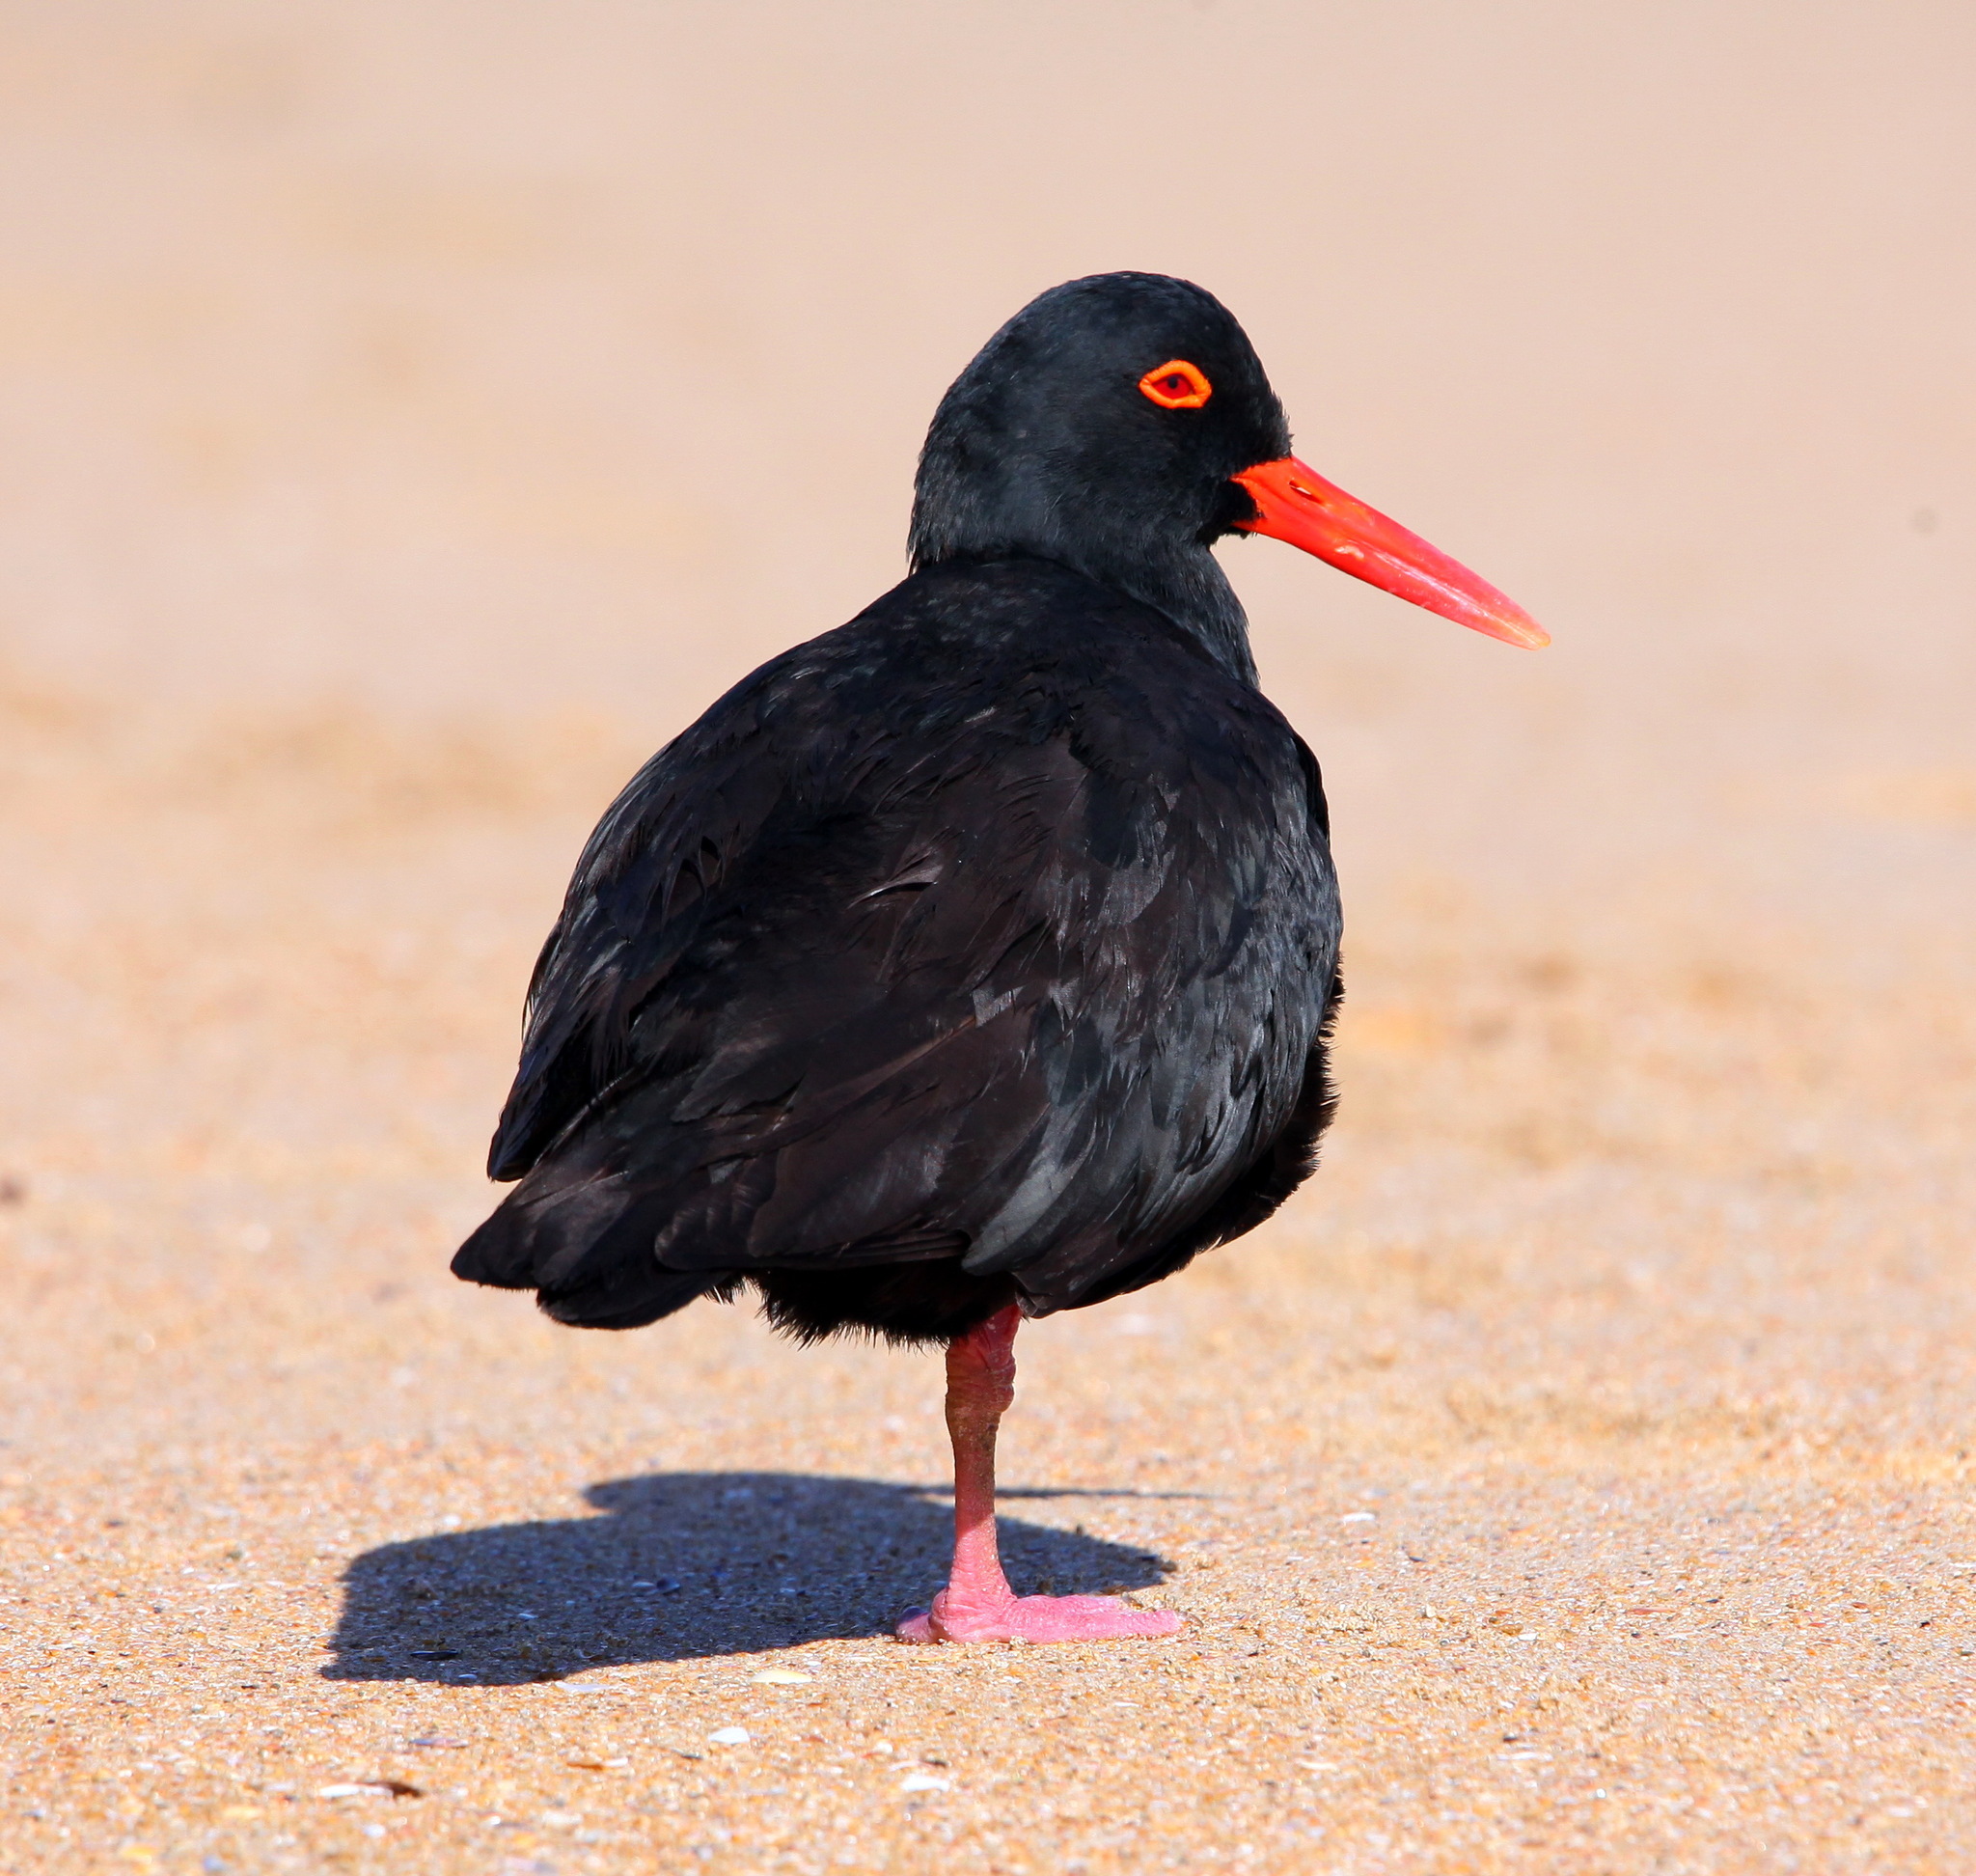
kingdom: Animalia
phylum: Chordata
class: Aves
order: Charadriiformes
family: Haematopodidae
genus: Haematopus
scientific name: Haematopus moquini
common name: African oystercatcher
